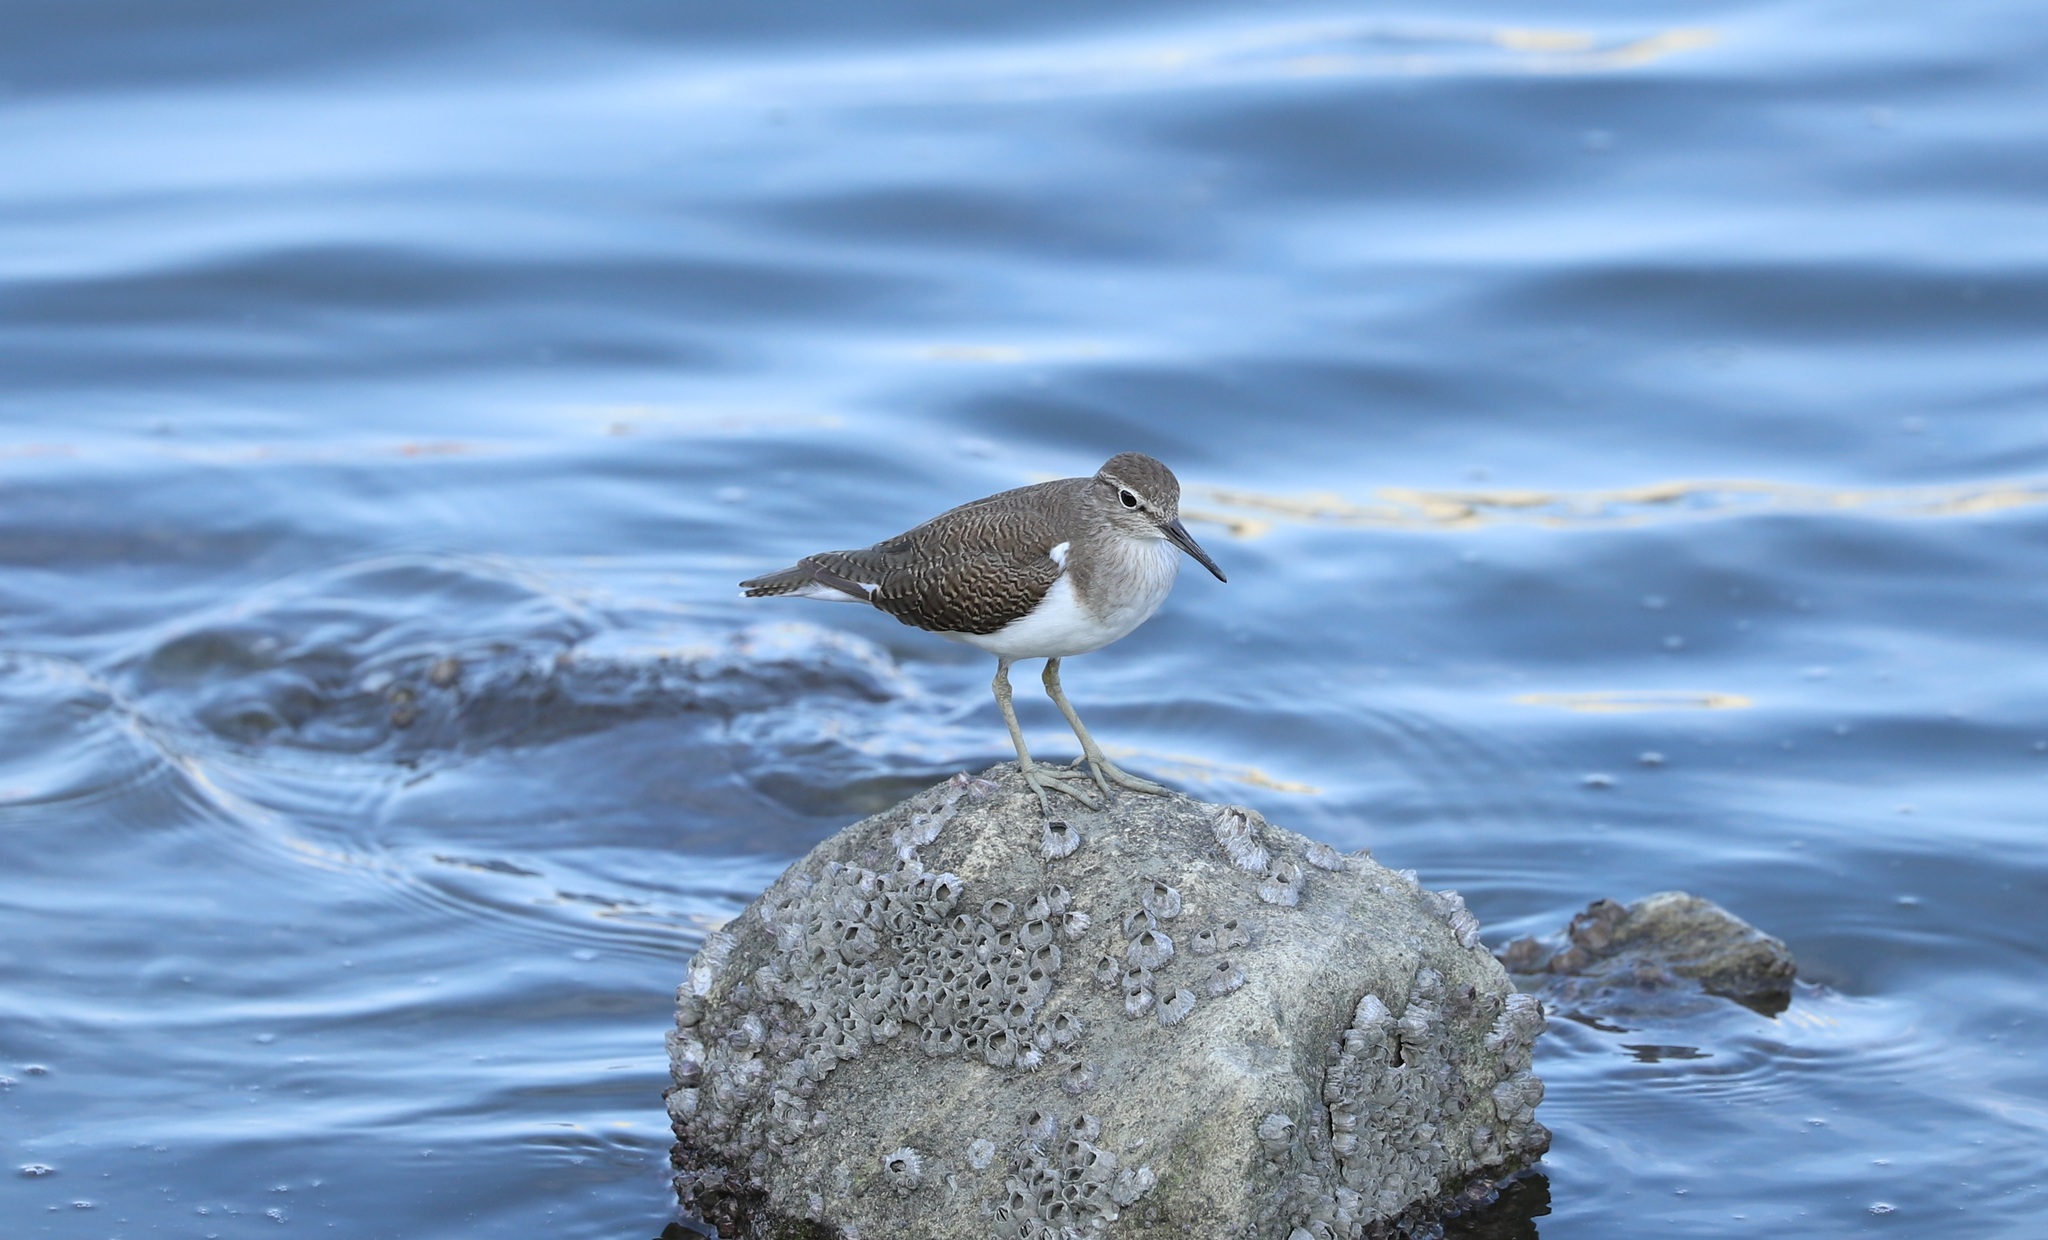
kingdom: Animalia
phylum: Chordata
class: Aves
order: Charadriiformes
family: Scolopacidae
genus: Actitis
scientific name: Actitis hypoleucos
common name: Common sandpiper
